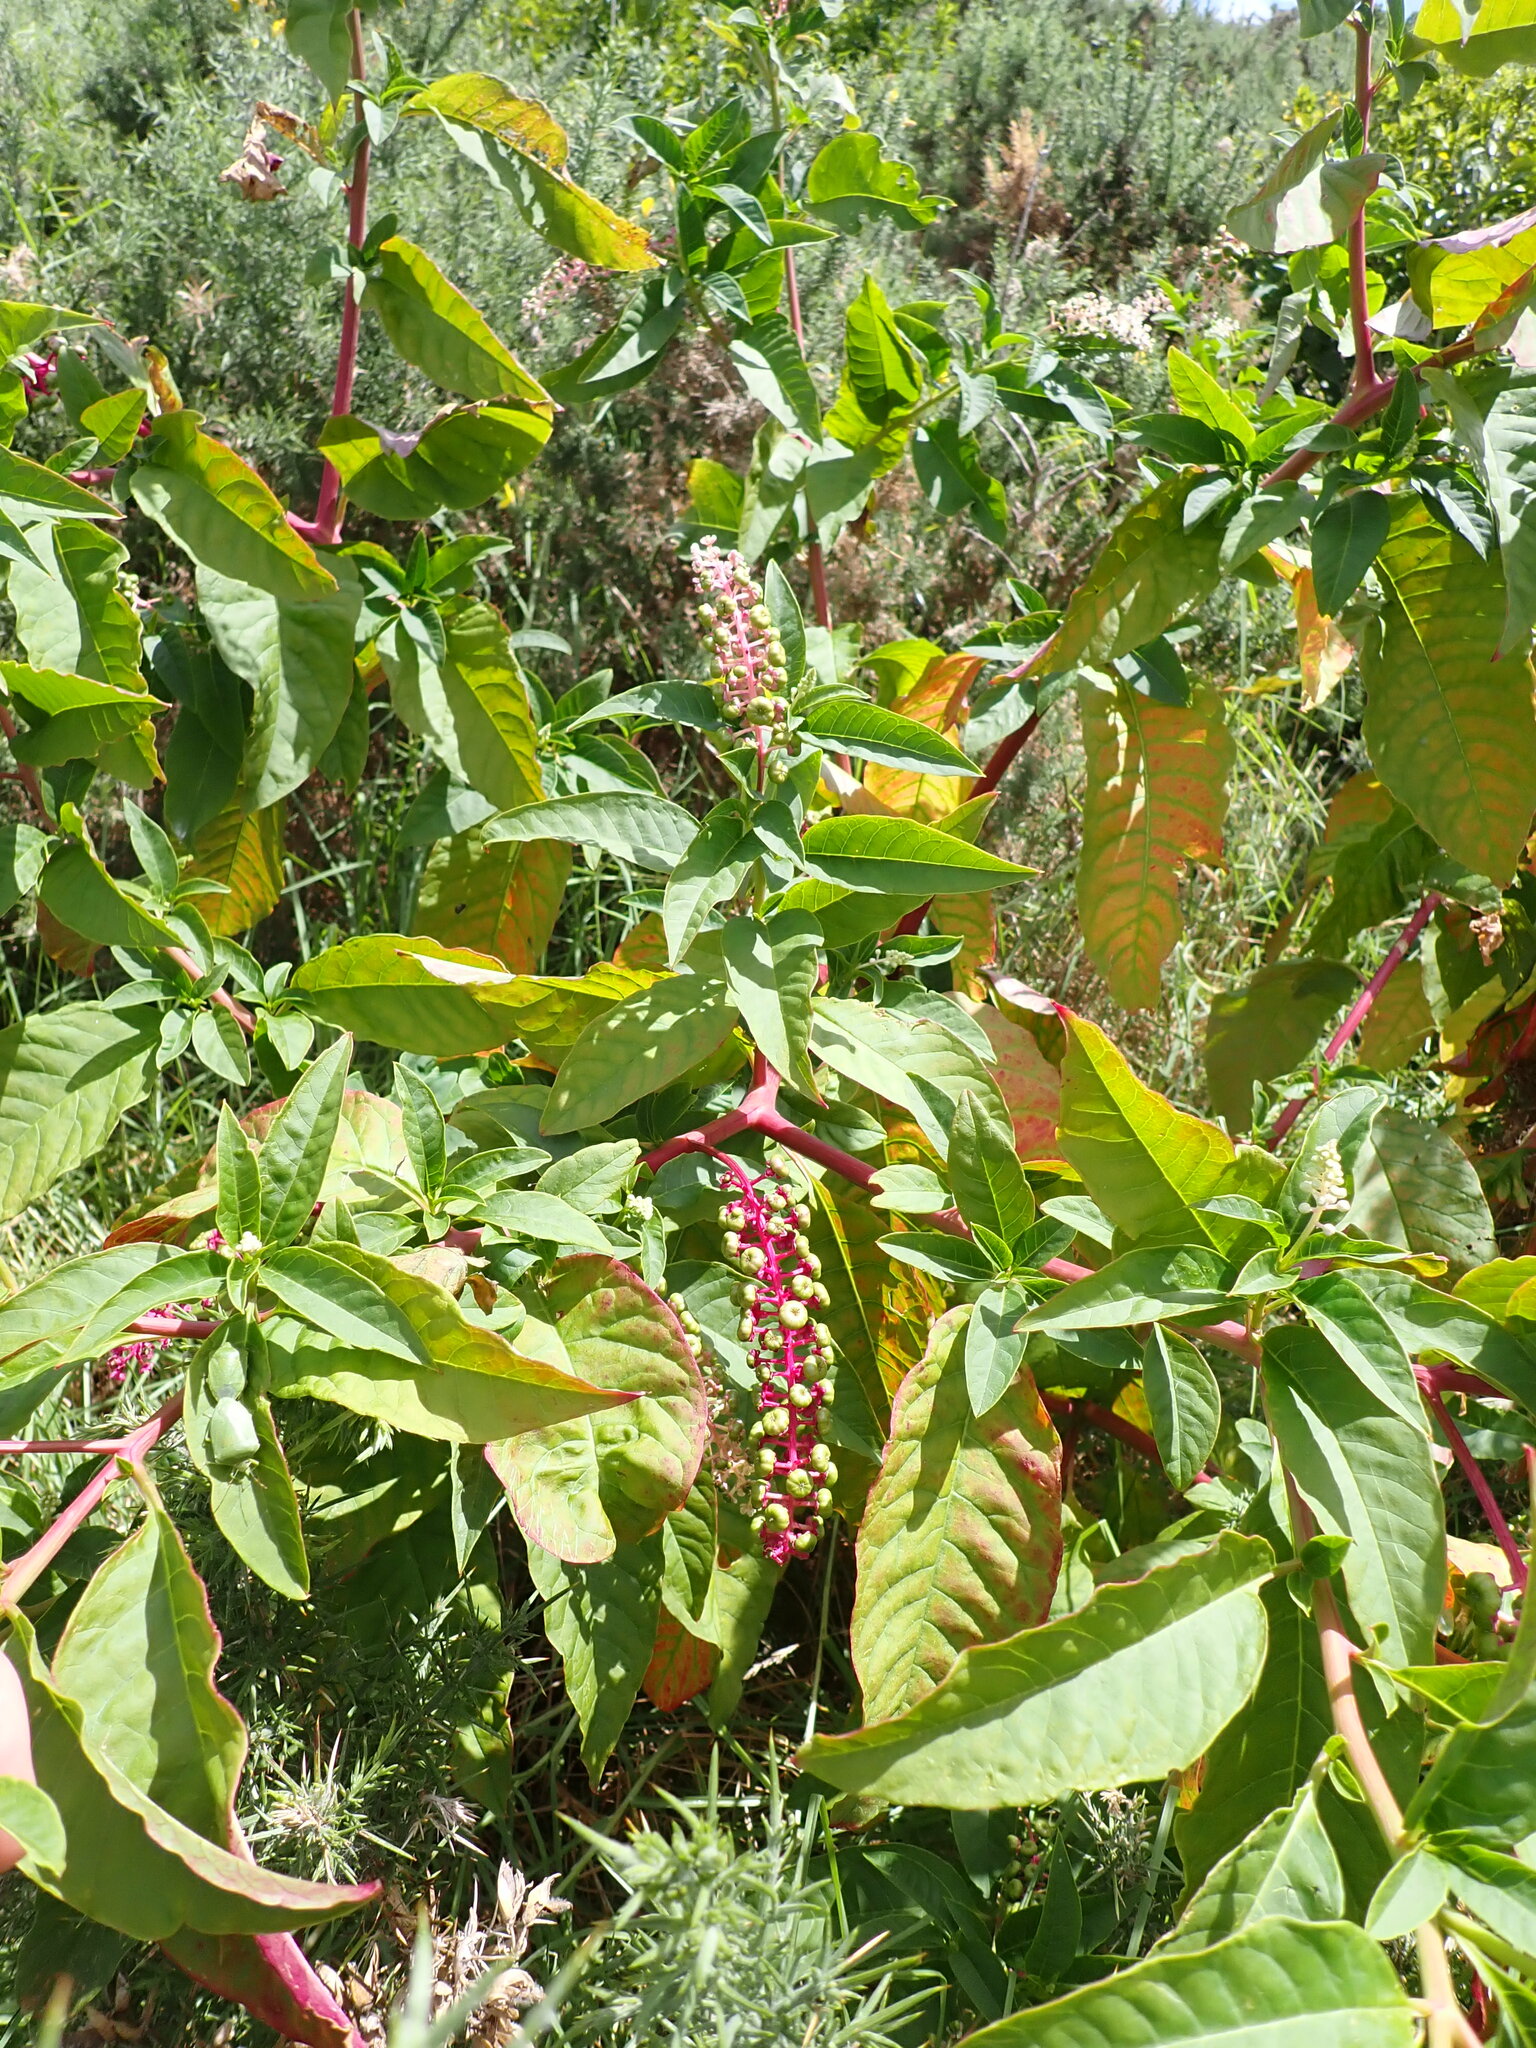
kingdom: Plantae
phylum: Tracheophyta
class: Magnoliopsida
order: Caryophyllales
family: Phytolaccaceae
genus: Phytolacca
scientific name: Phytolacca americana
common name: American pokeweed
